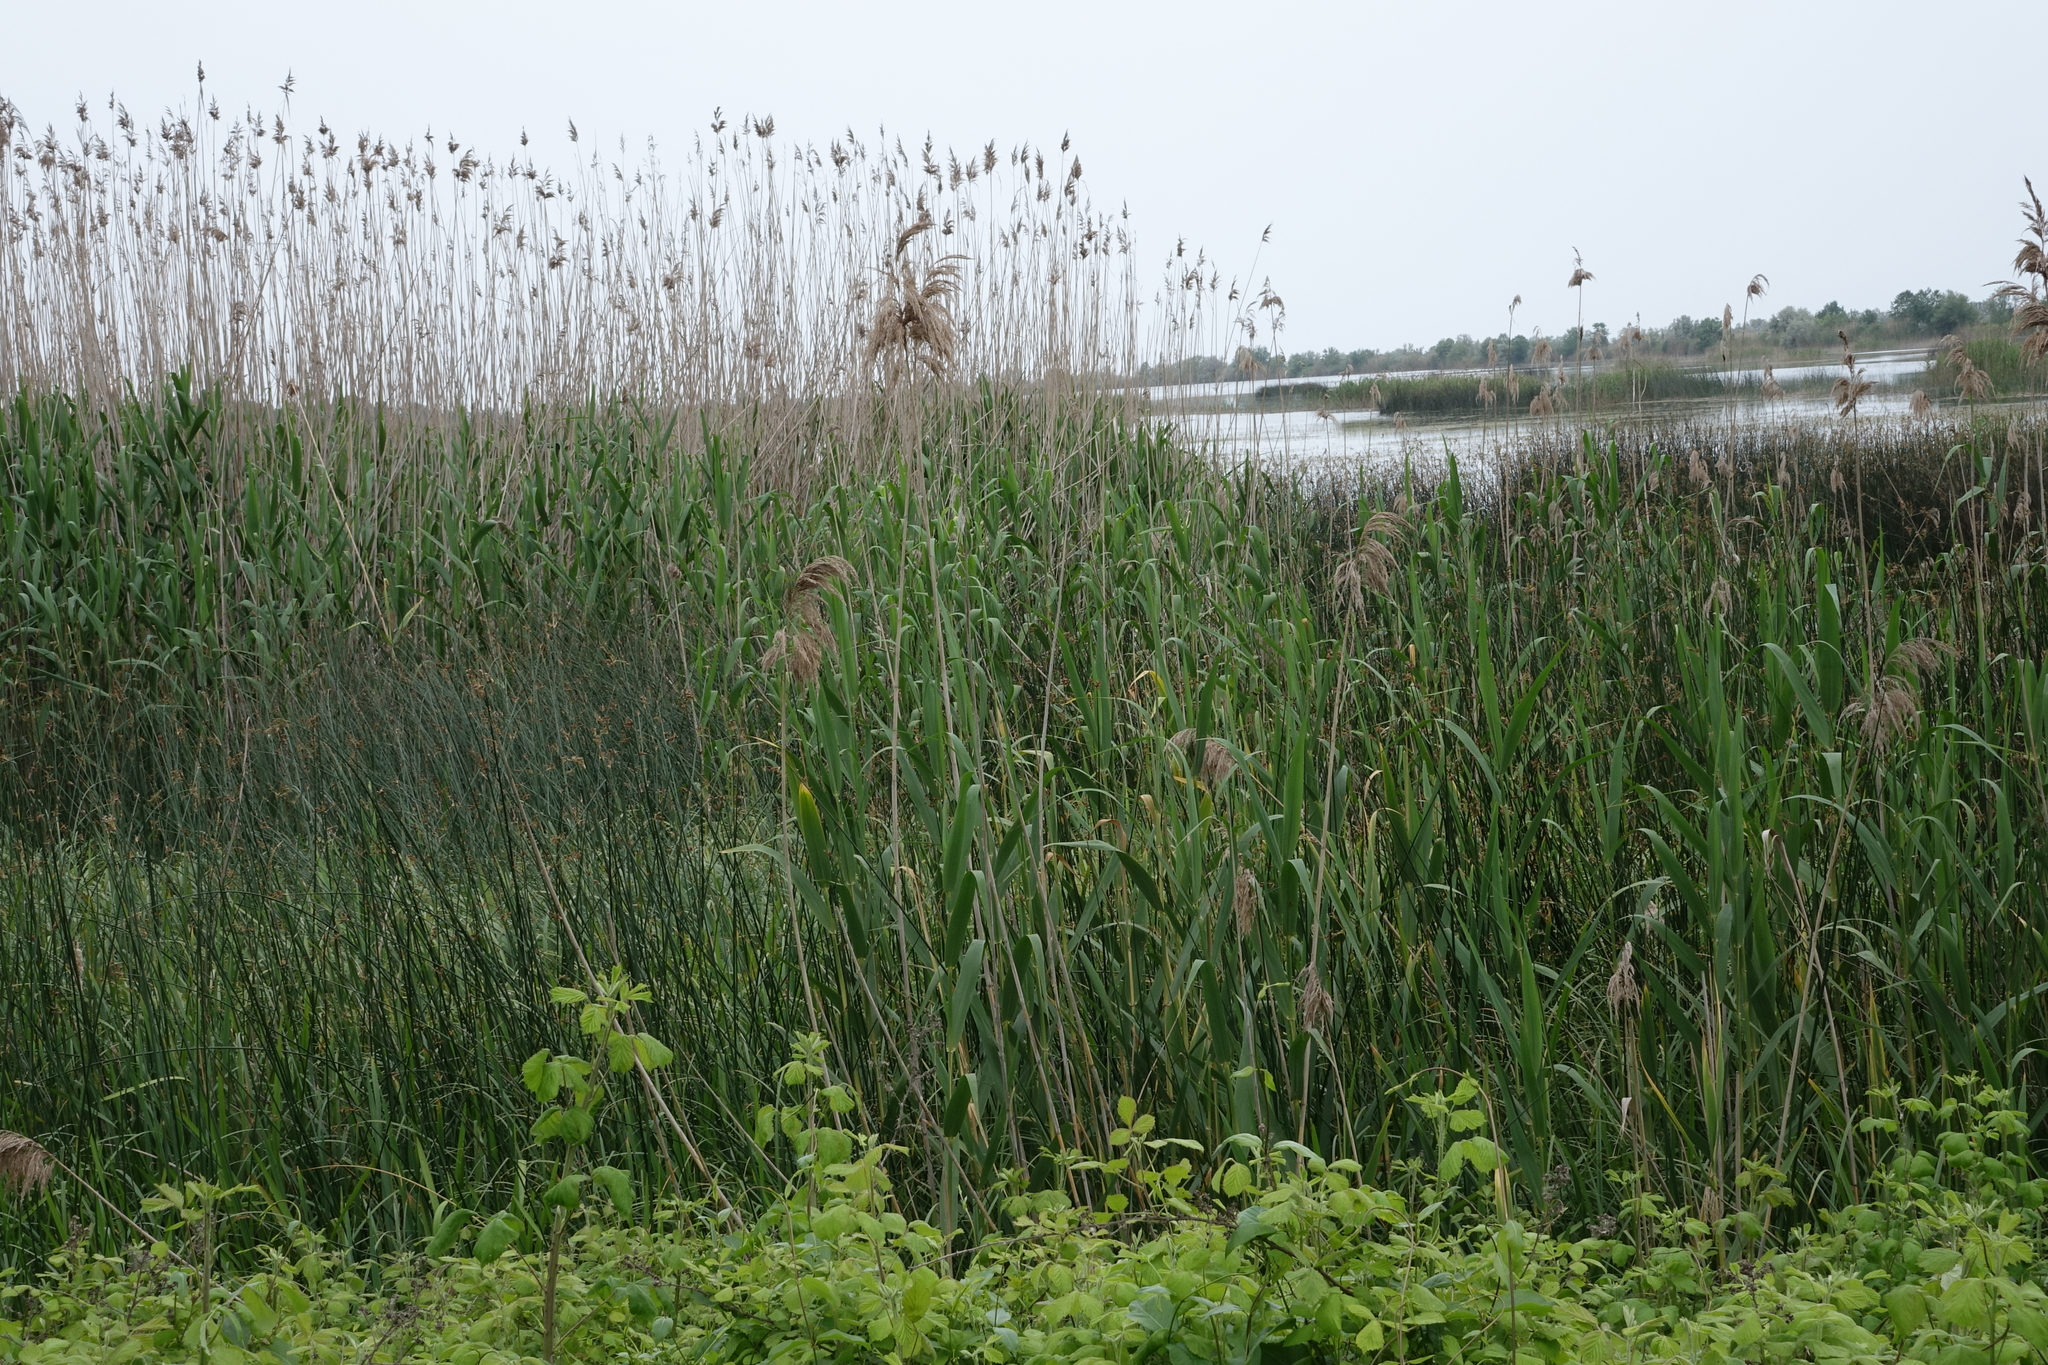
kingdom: Plantae
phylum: Tracheophyta
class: Liliopsida
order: Poales
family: Poaceae
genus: Phragmites
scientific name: Phragmites australis
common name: Common reed
